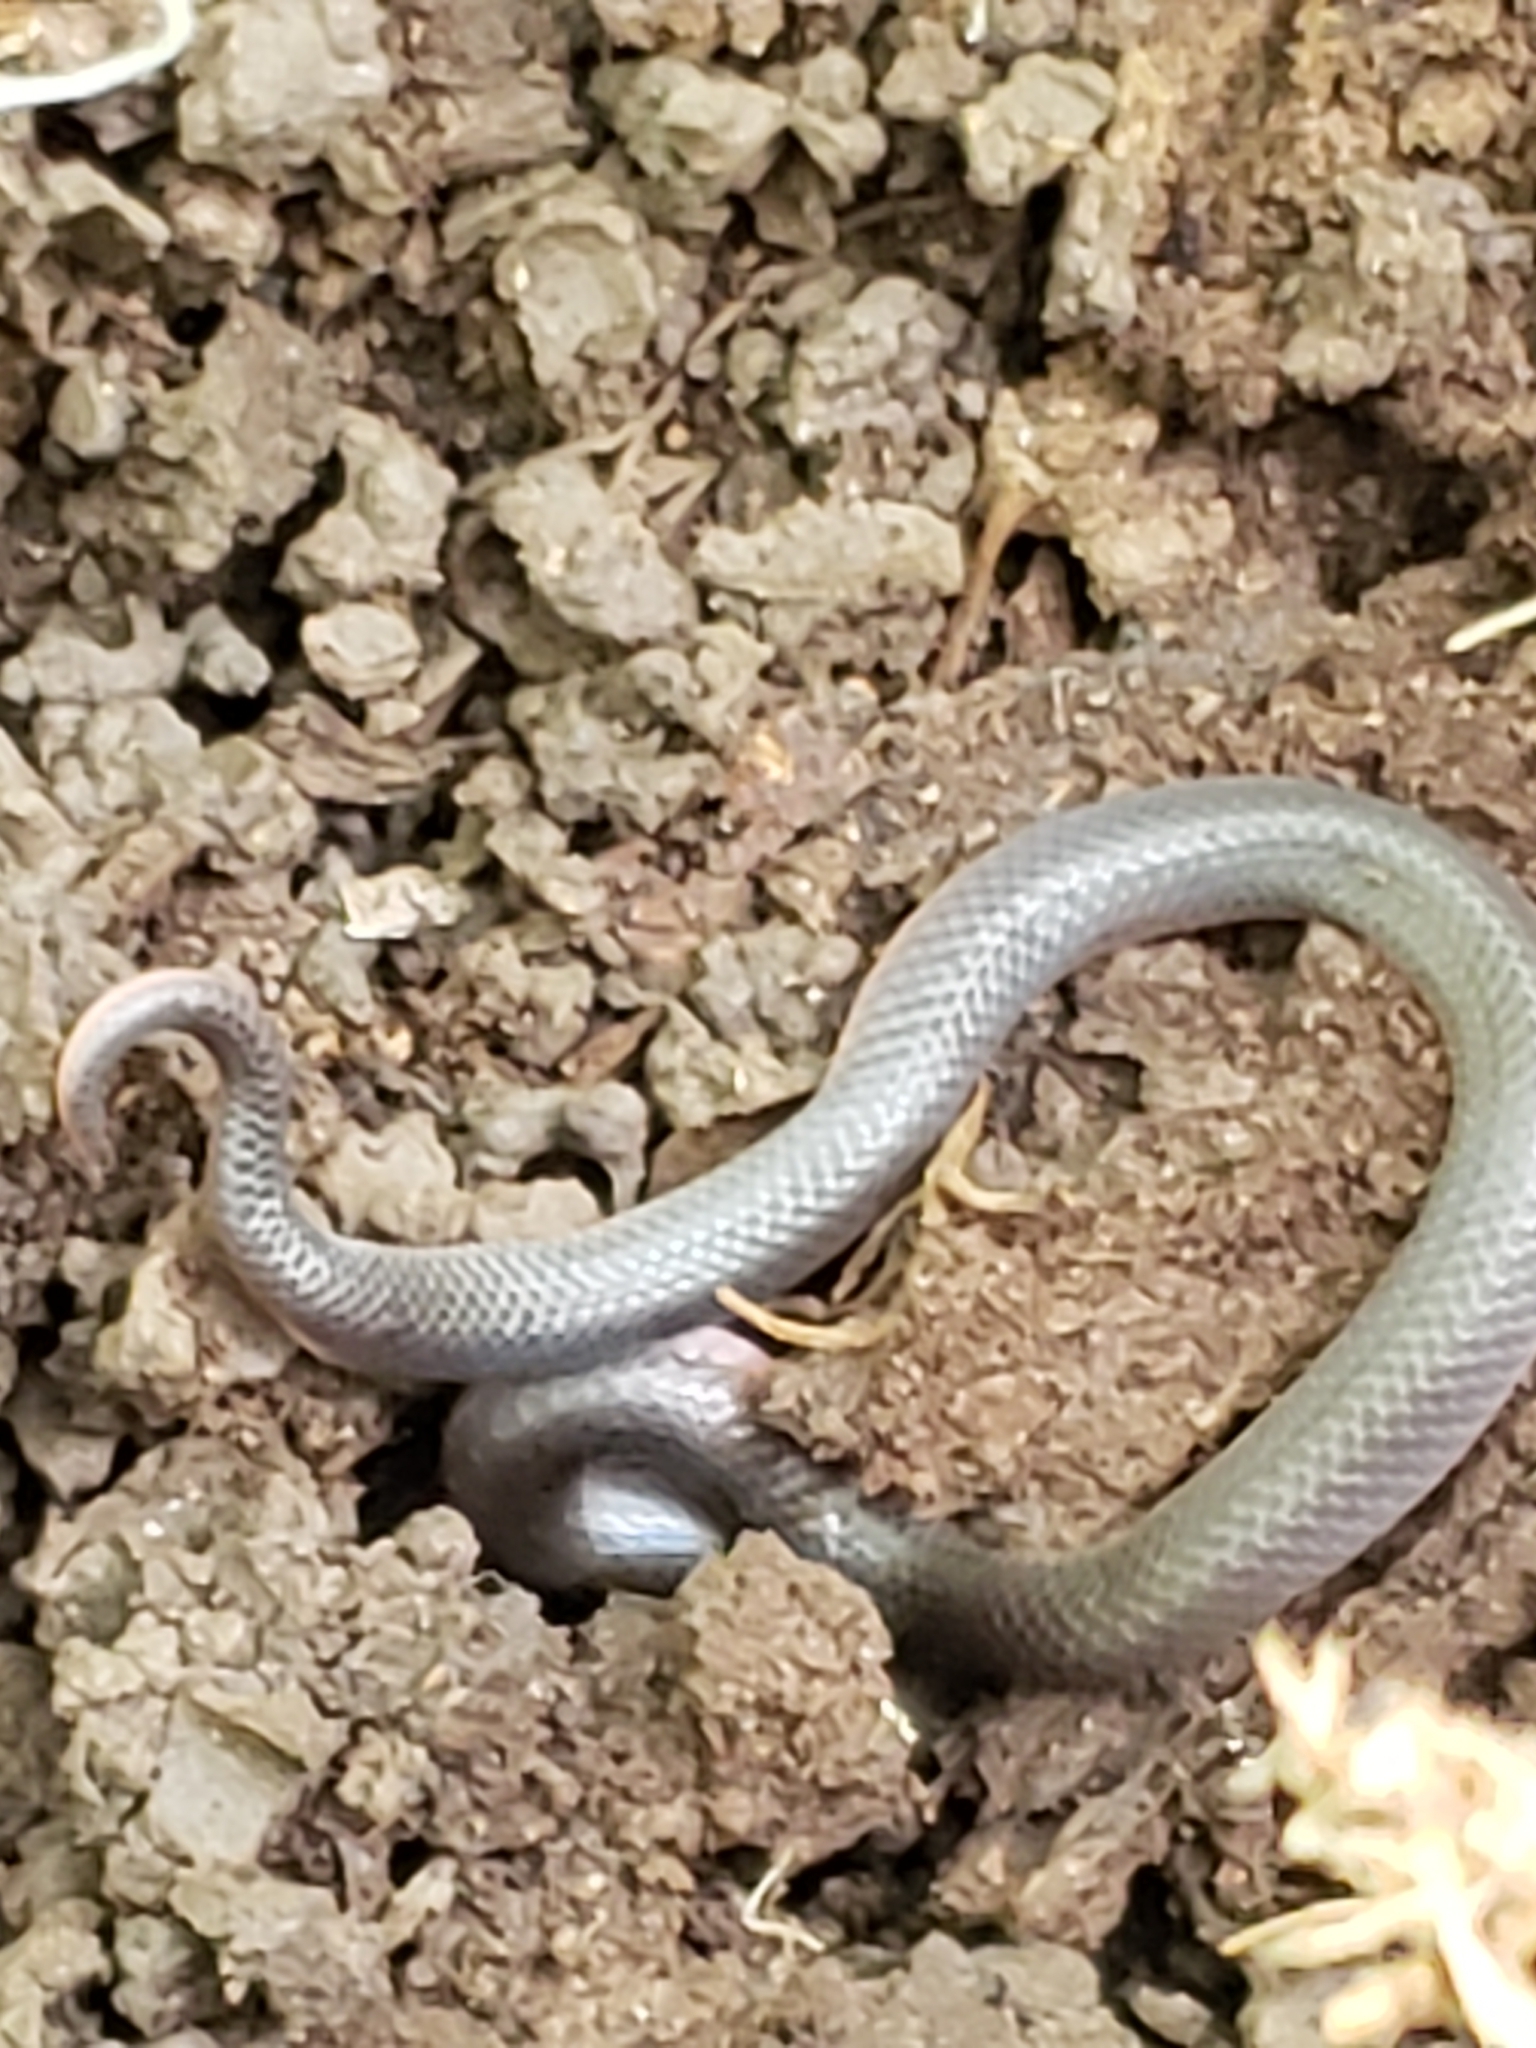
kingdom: Animalia
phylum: Chordata
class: Squamata
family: Colubridae
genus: Carphophis
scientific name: Carphophis amoenus
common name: Eastern worm snake
